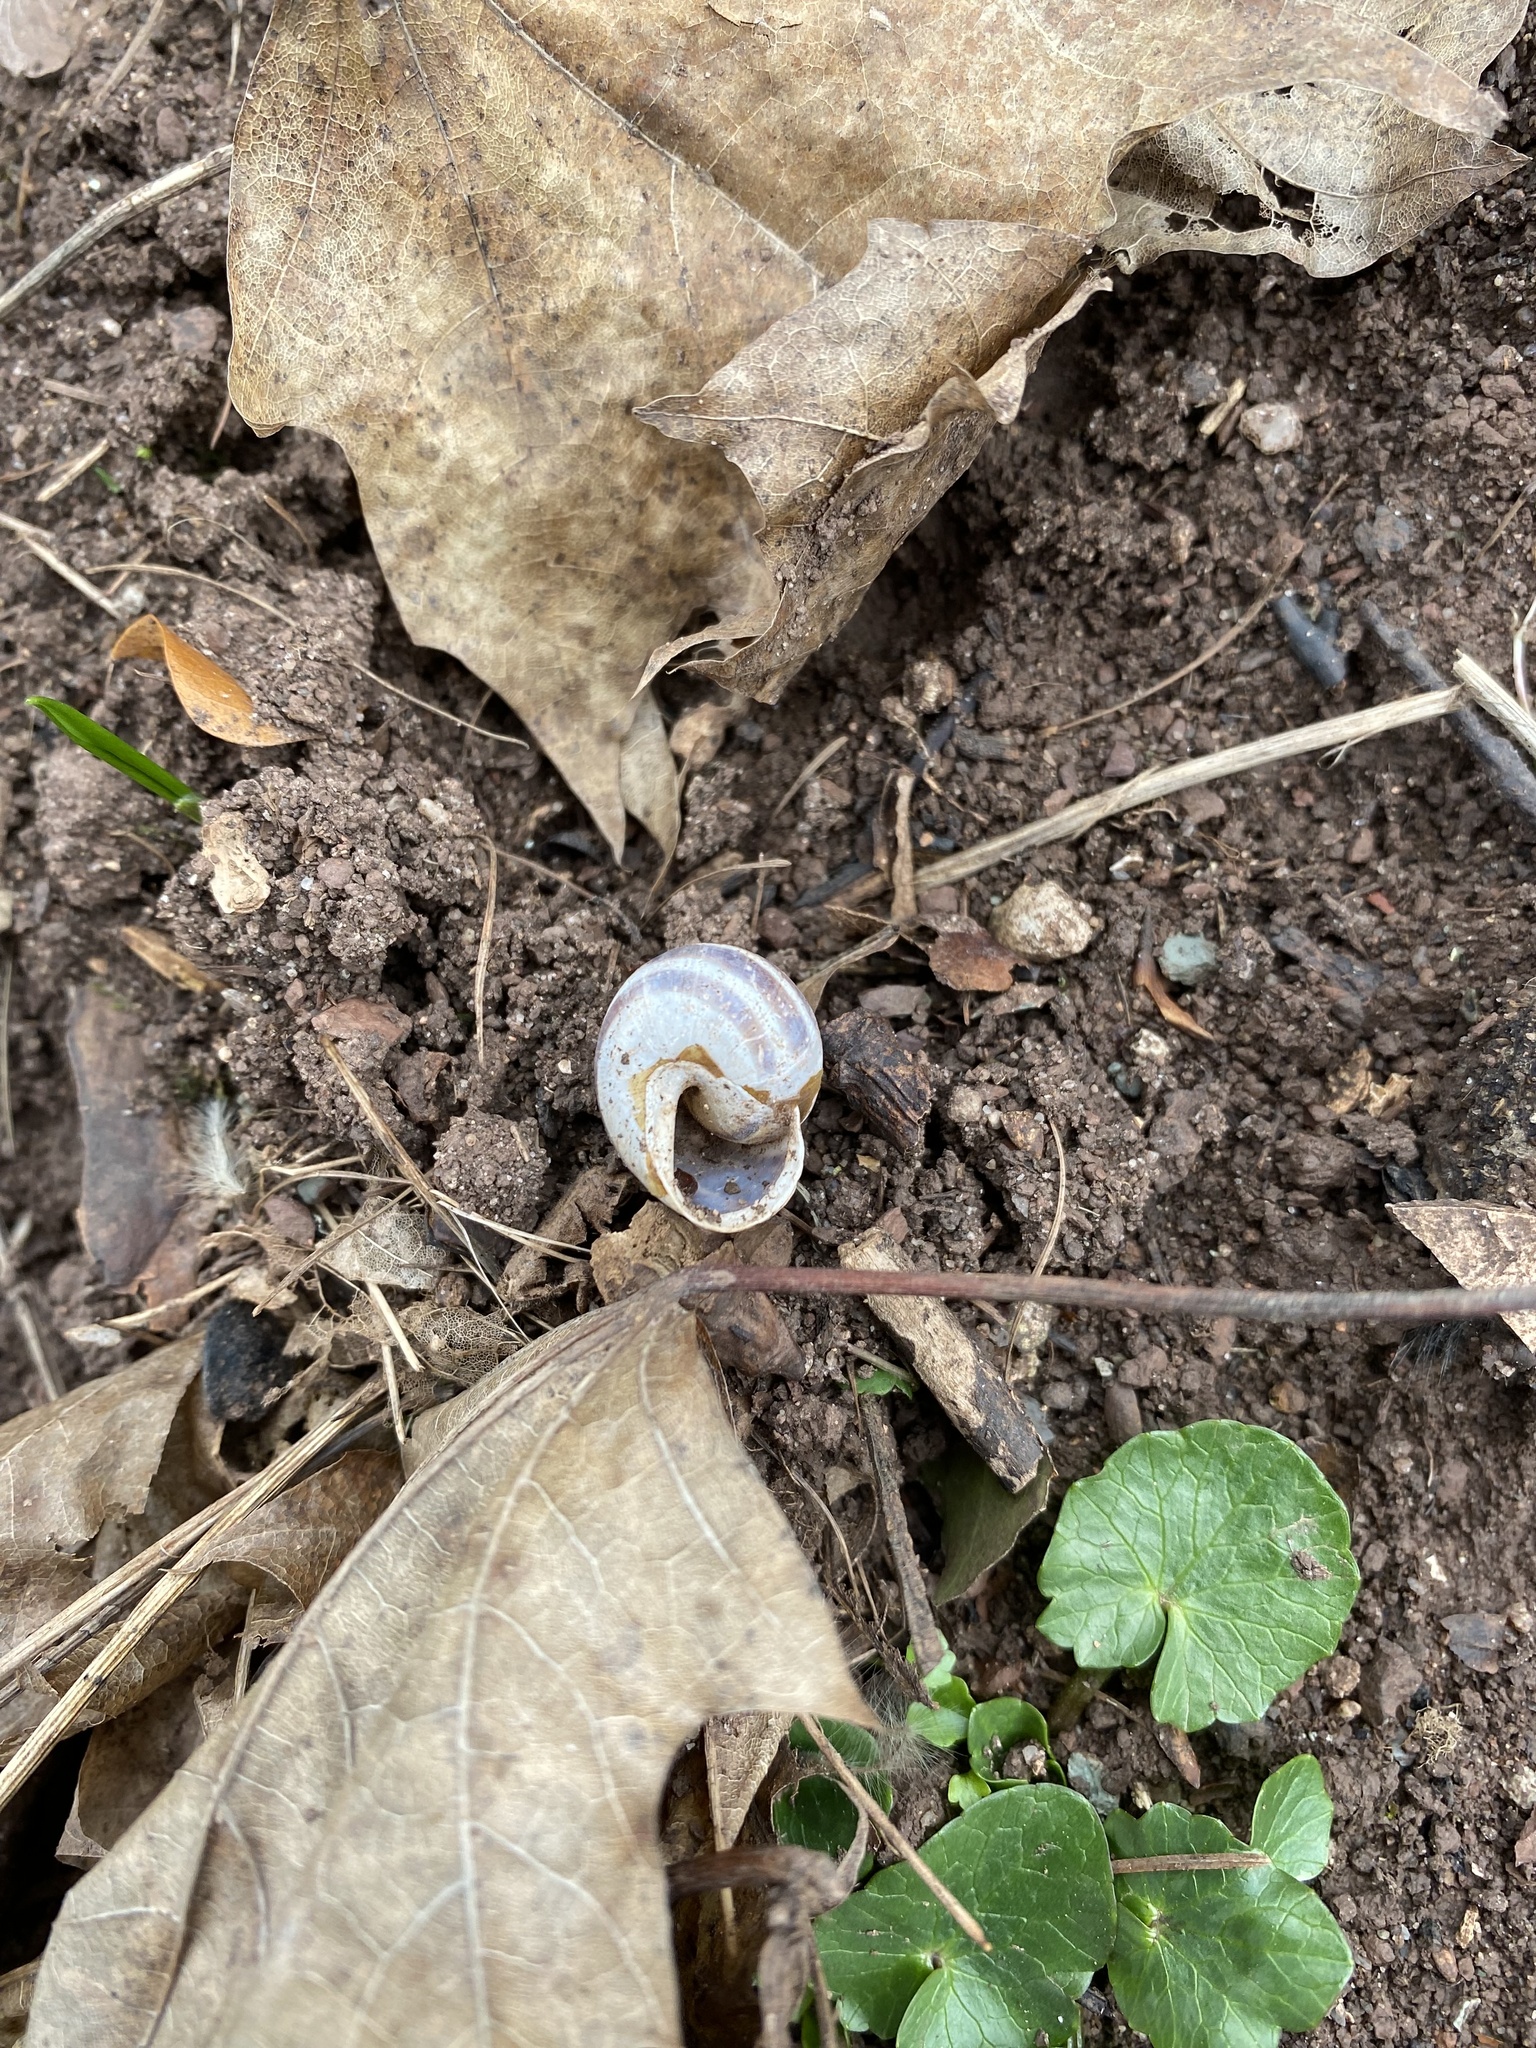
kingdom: Animalia
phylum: Mollusca
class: Gastropoda
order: Stylommatophora
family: Helicidae
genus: Cepaea
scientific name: Cepaea hortensis
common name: White-lip gardensnail
